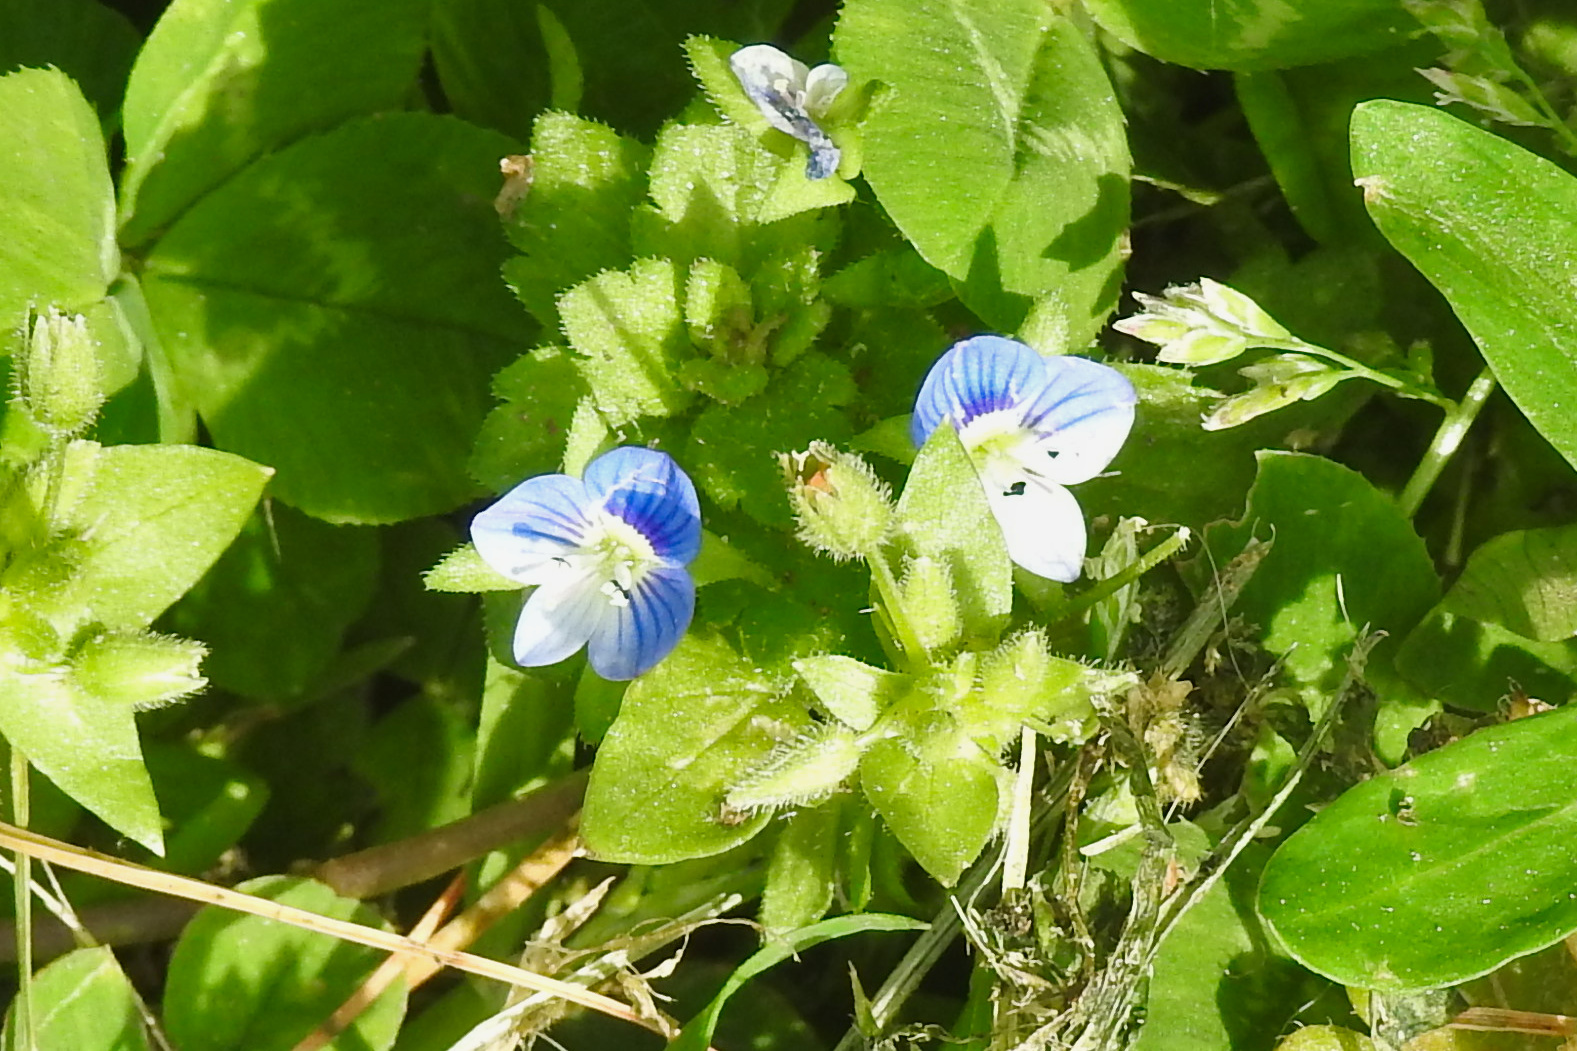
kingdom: Plantae
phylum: Tracheophyta
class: Magnoliopsida
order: Lamiales
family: Plantaginaceae
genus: Veronica
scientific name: Veronica persica
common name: Common field-speedwell
